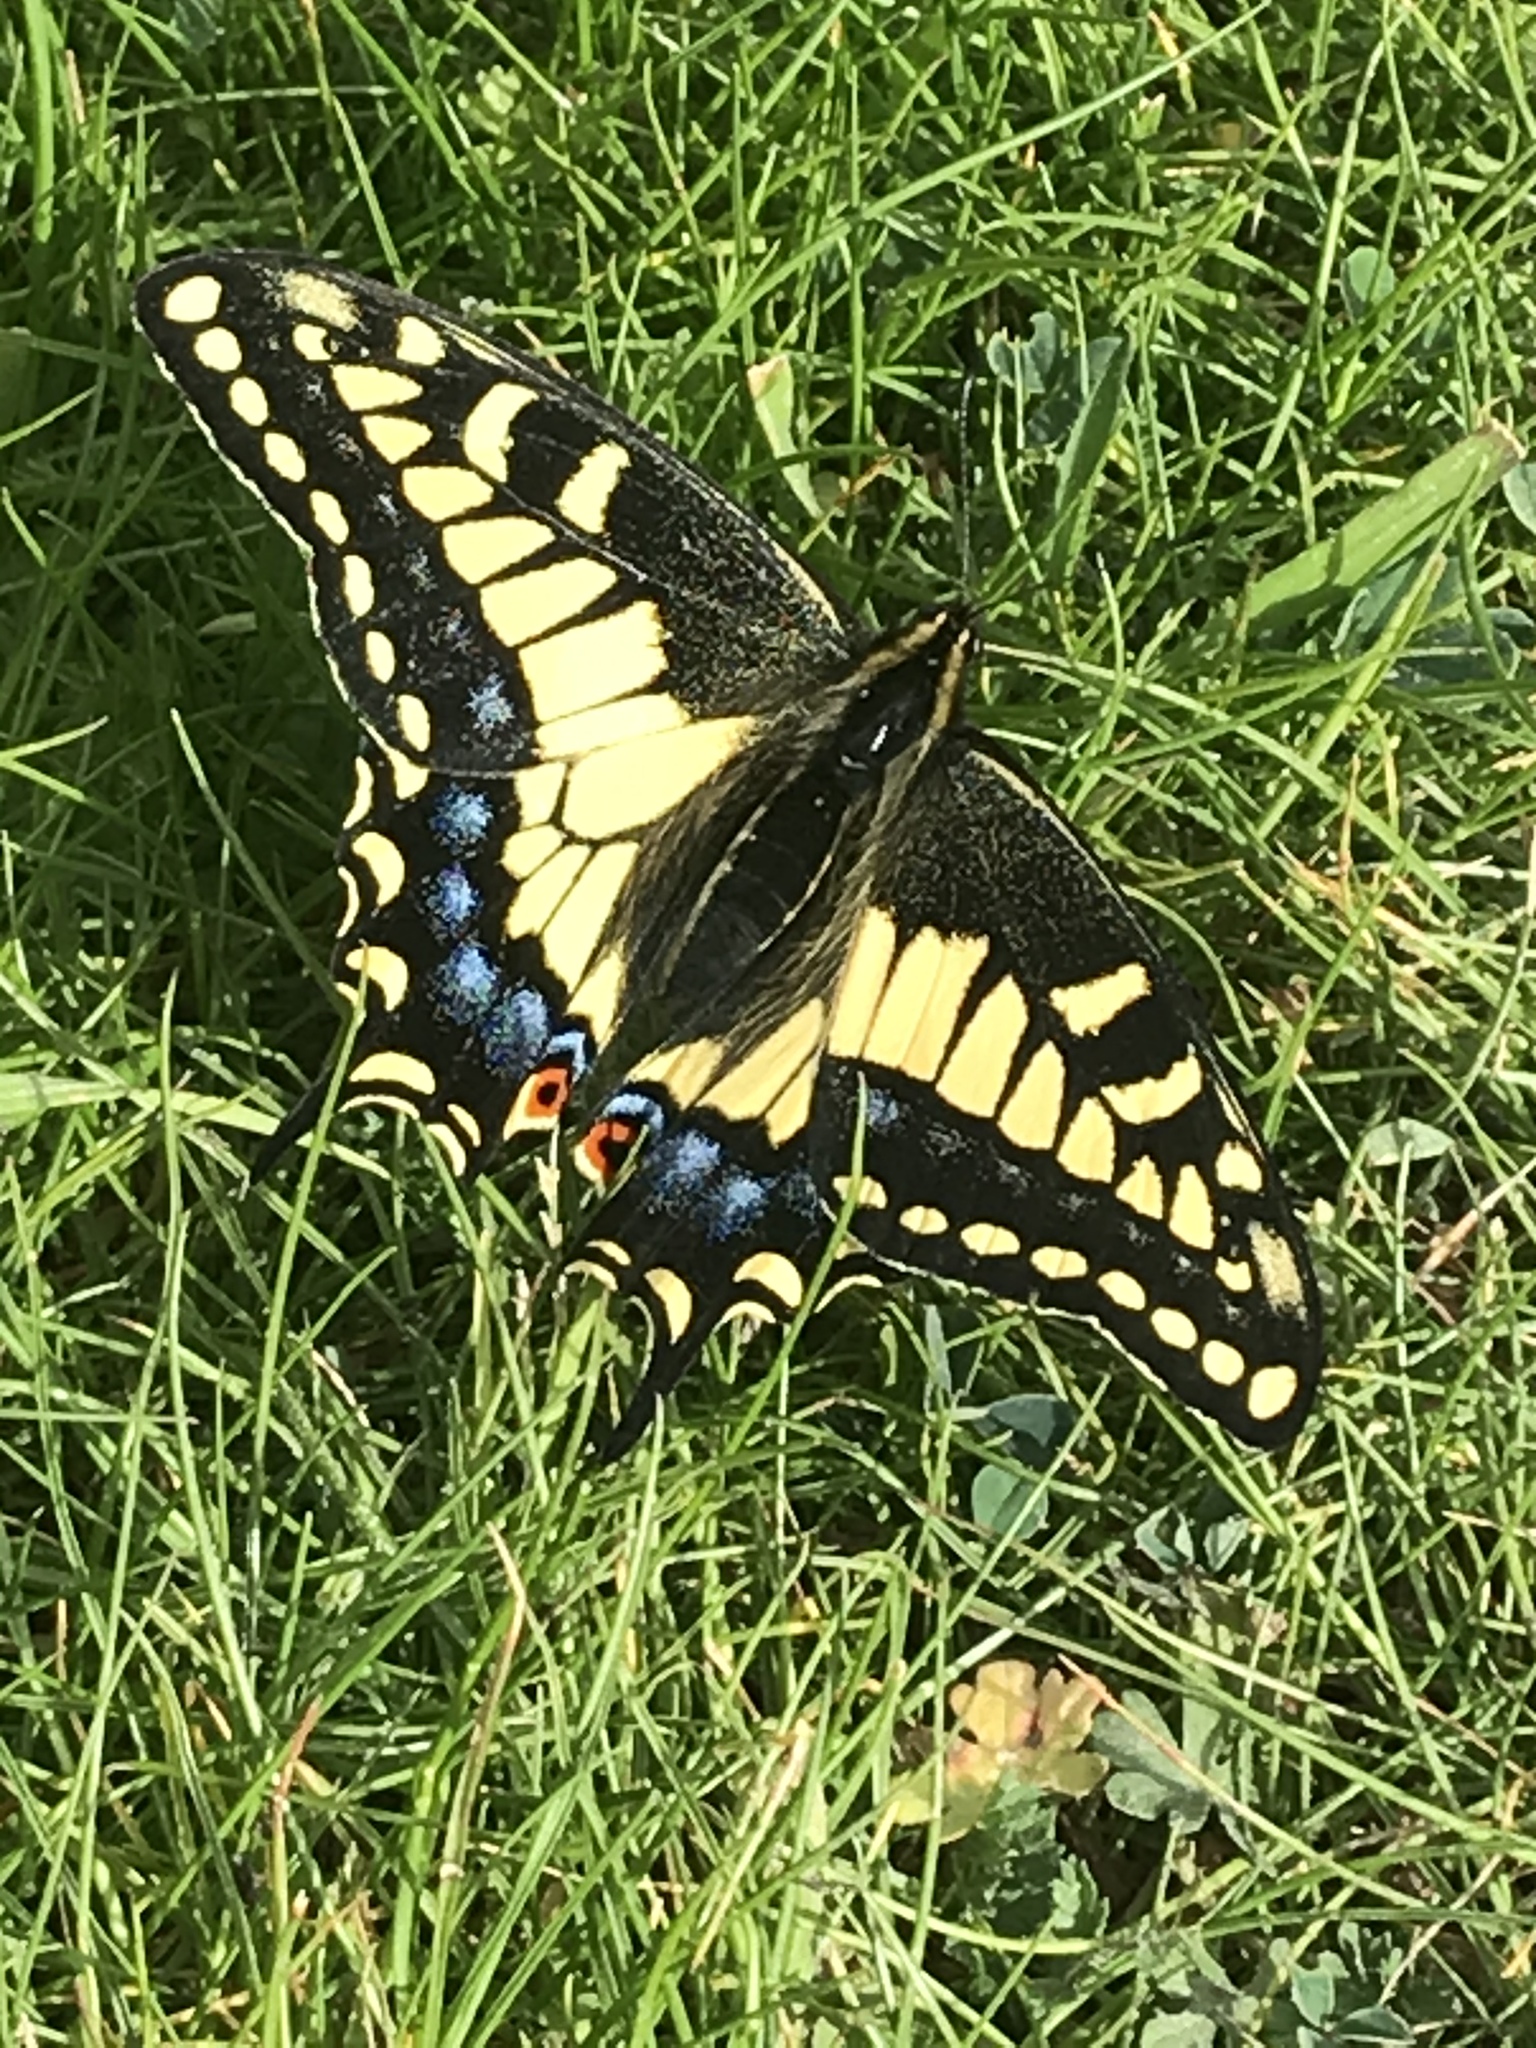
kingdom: Animalia
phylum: Arthropoda
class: Insecta
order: Lepidoptera
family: Papilionidae
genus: Papilio
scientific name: Papilio zelicaon
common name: Anise swallowtail
